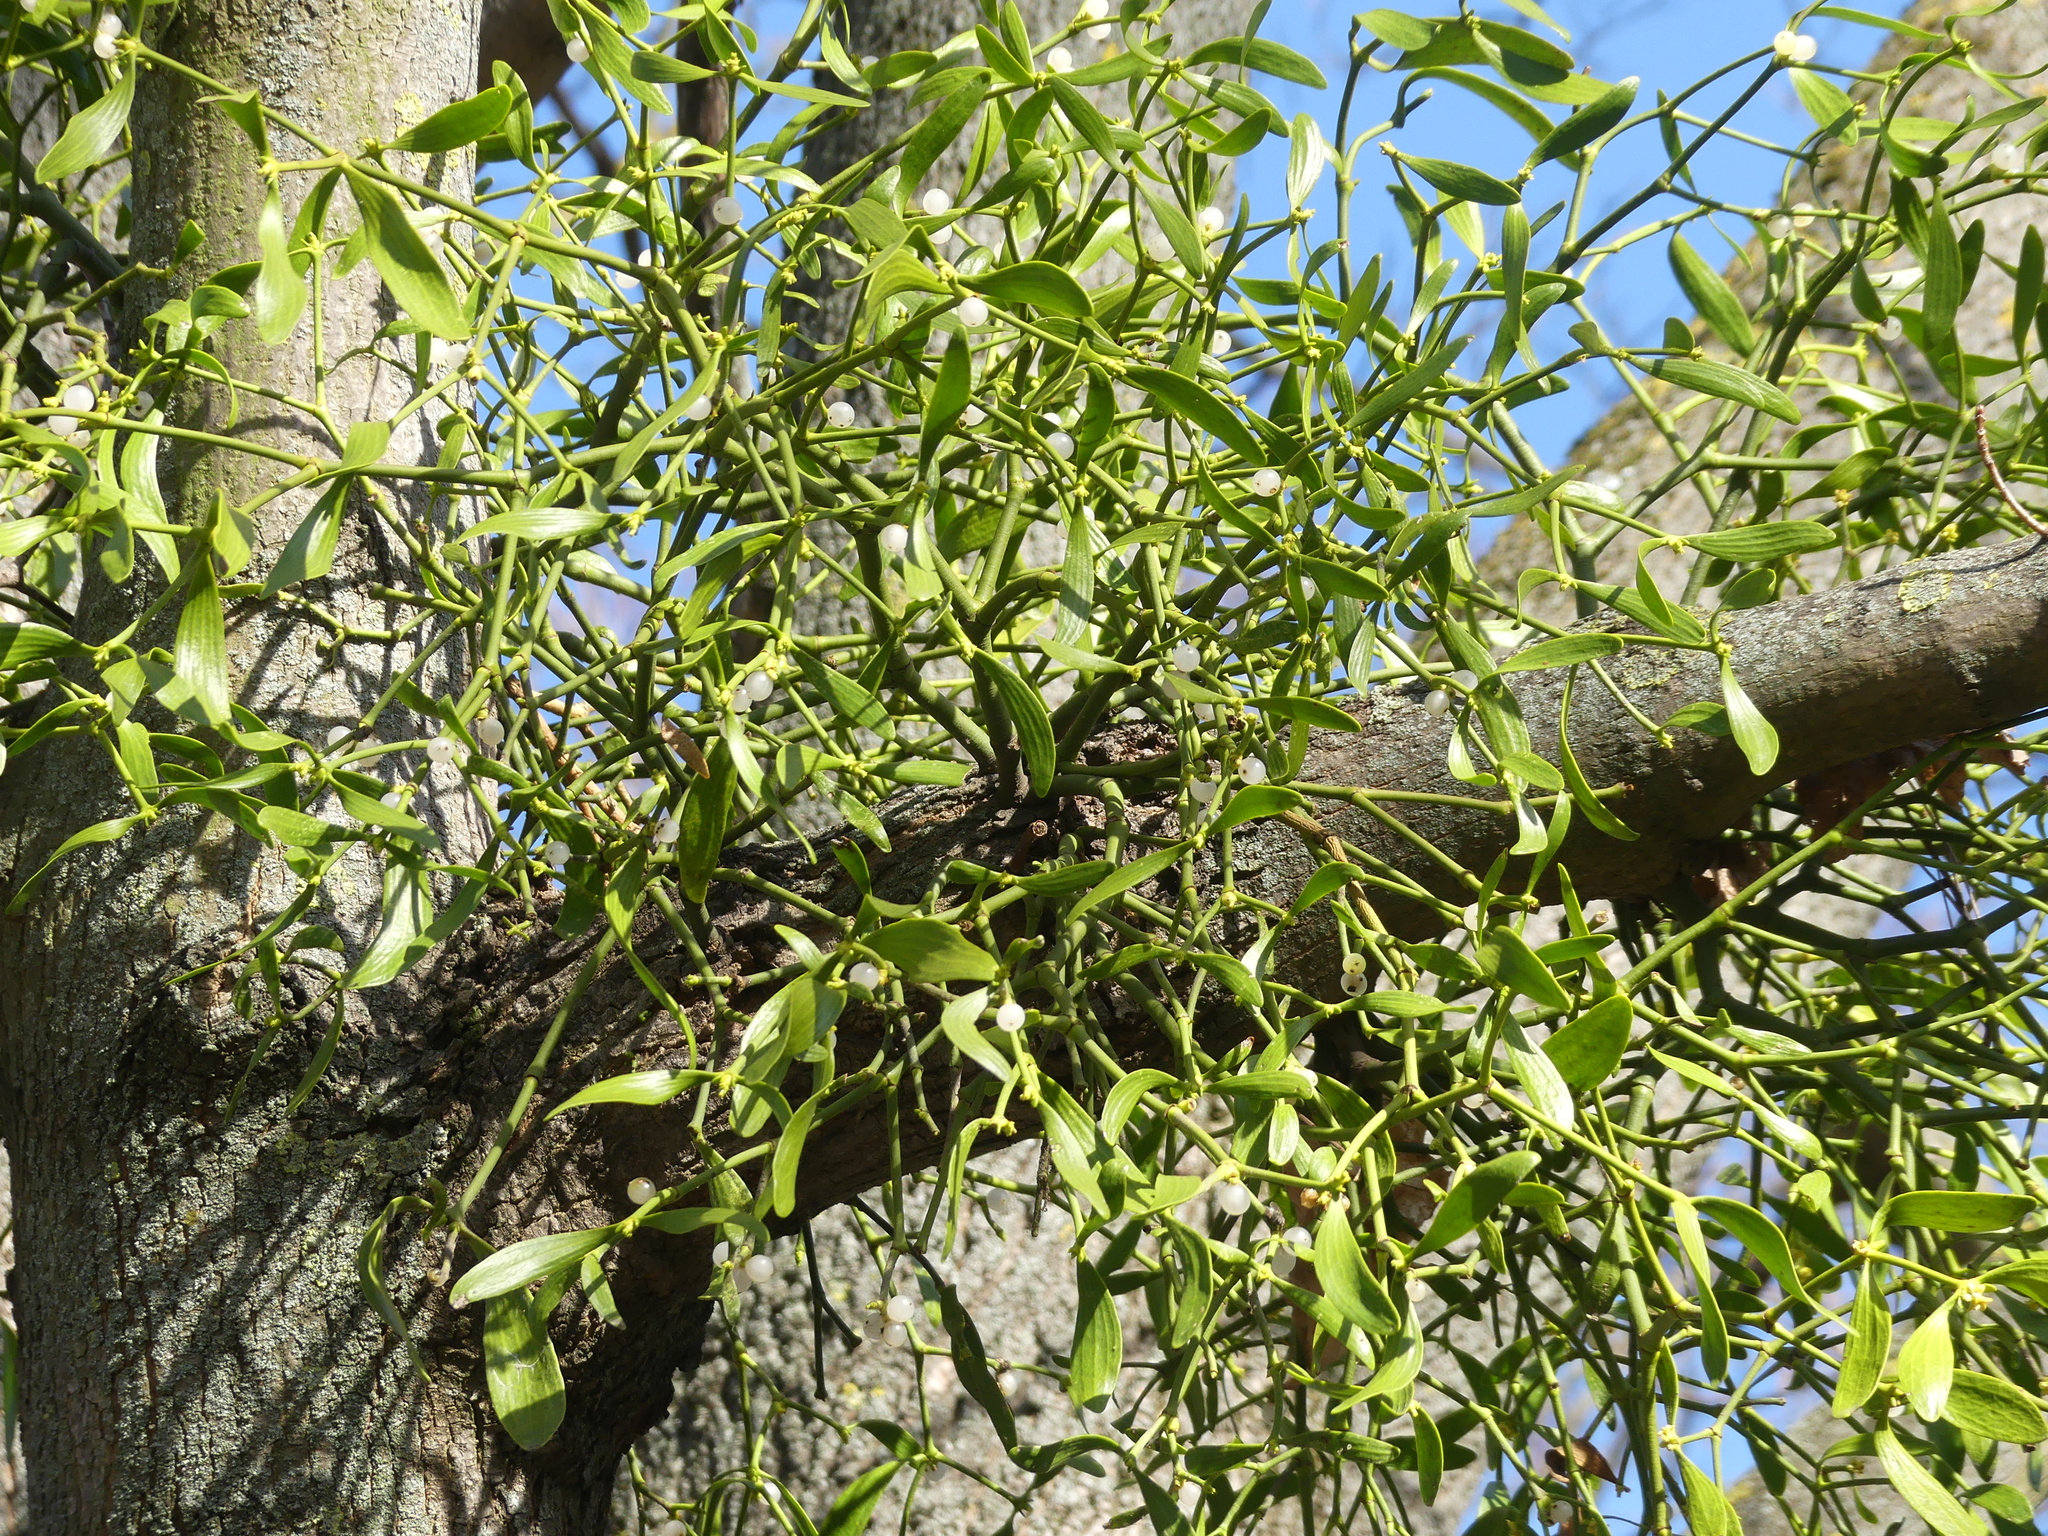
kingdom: Plantae
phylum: Tracheophyta
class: Magnoliopsida
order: Santalales
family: Viscaceae
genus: Viscum
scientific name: Viscum album
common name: Mistletoe
